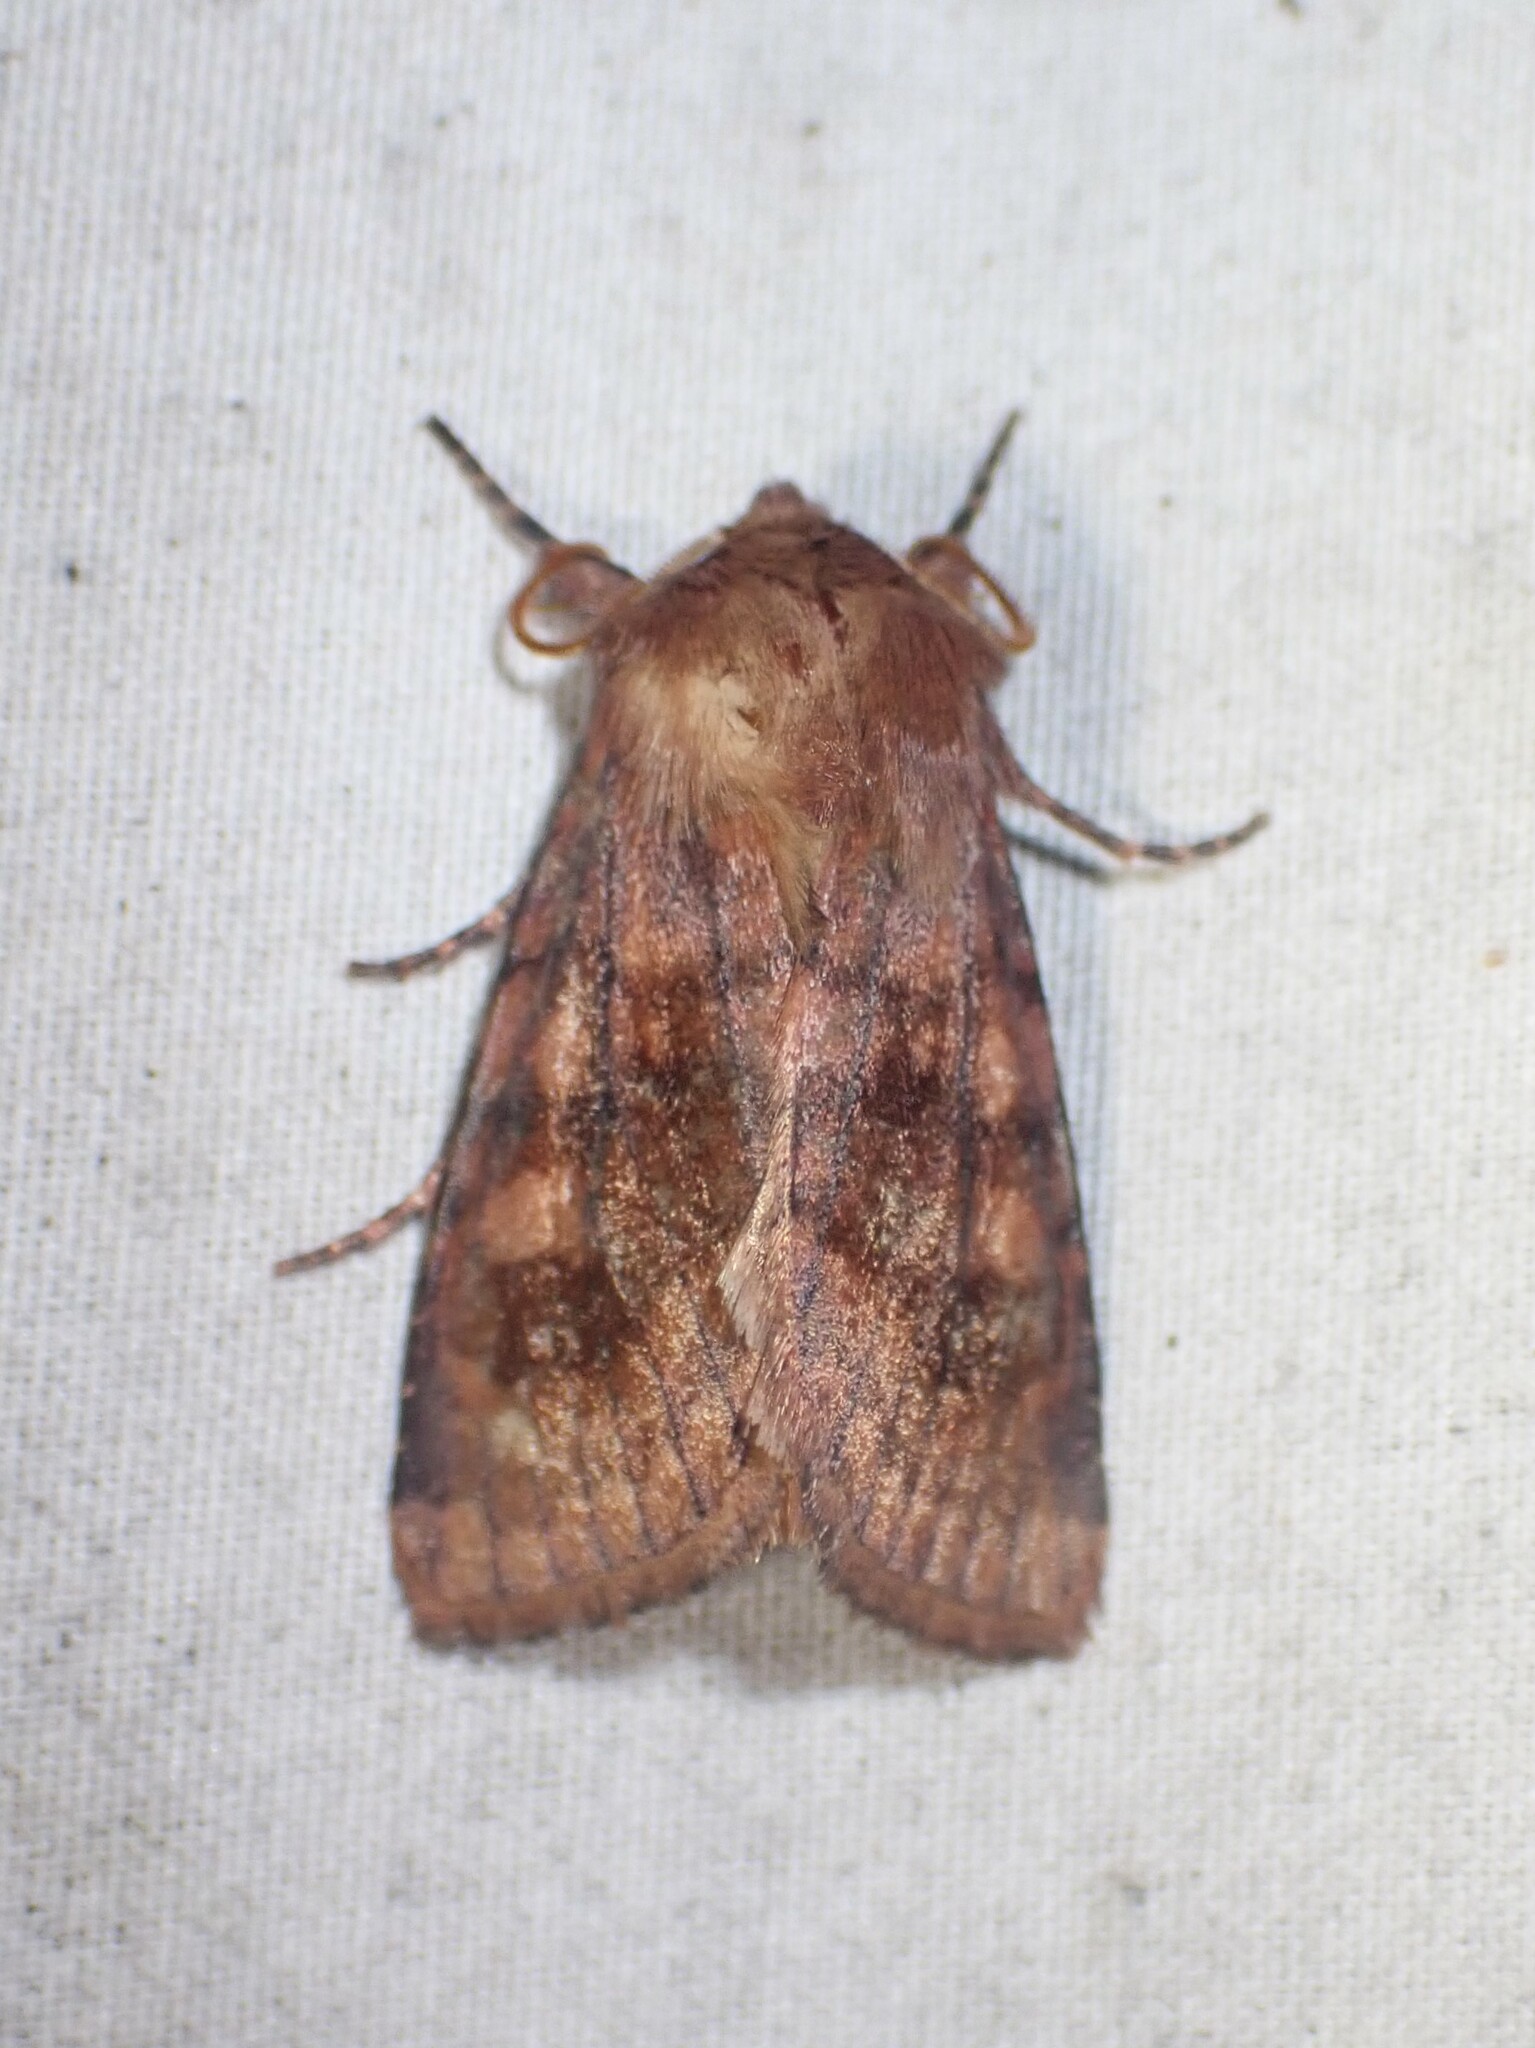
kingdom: Animalia
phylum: Arthropoda
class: Insecta
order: Lepidoptera
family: Noctuidae
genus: Nephelodes
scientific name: Nephelodes minians
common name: Bronzed cutworm
